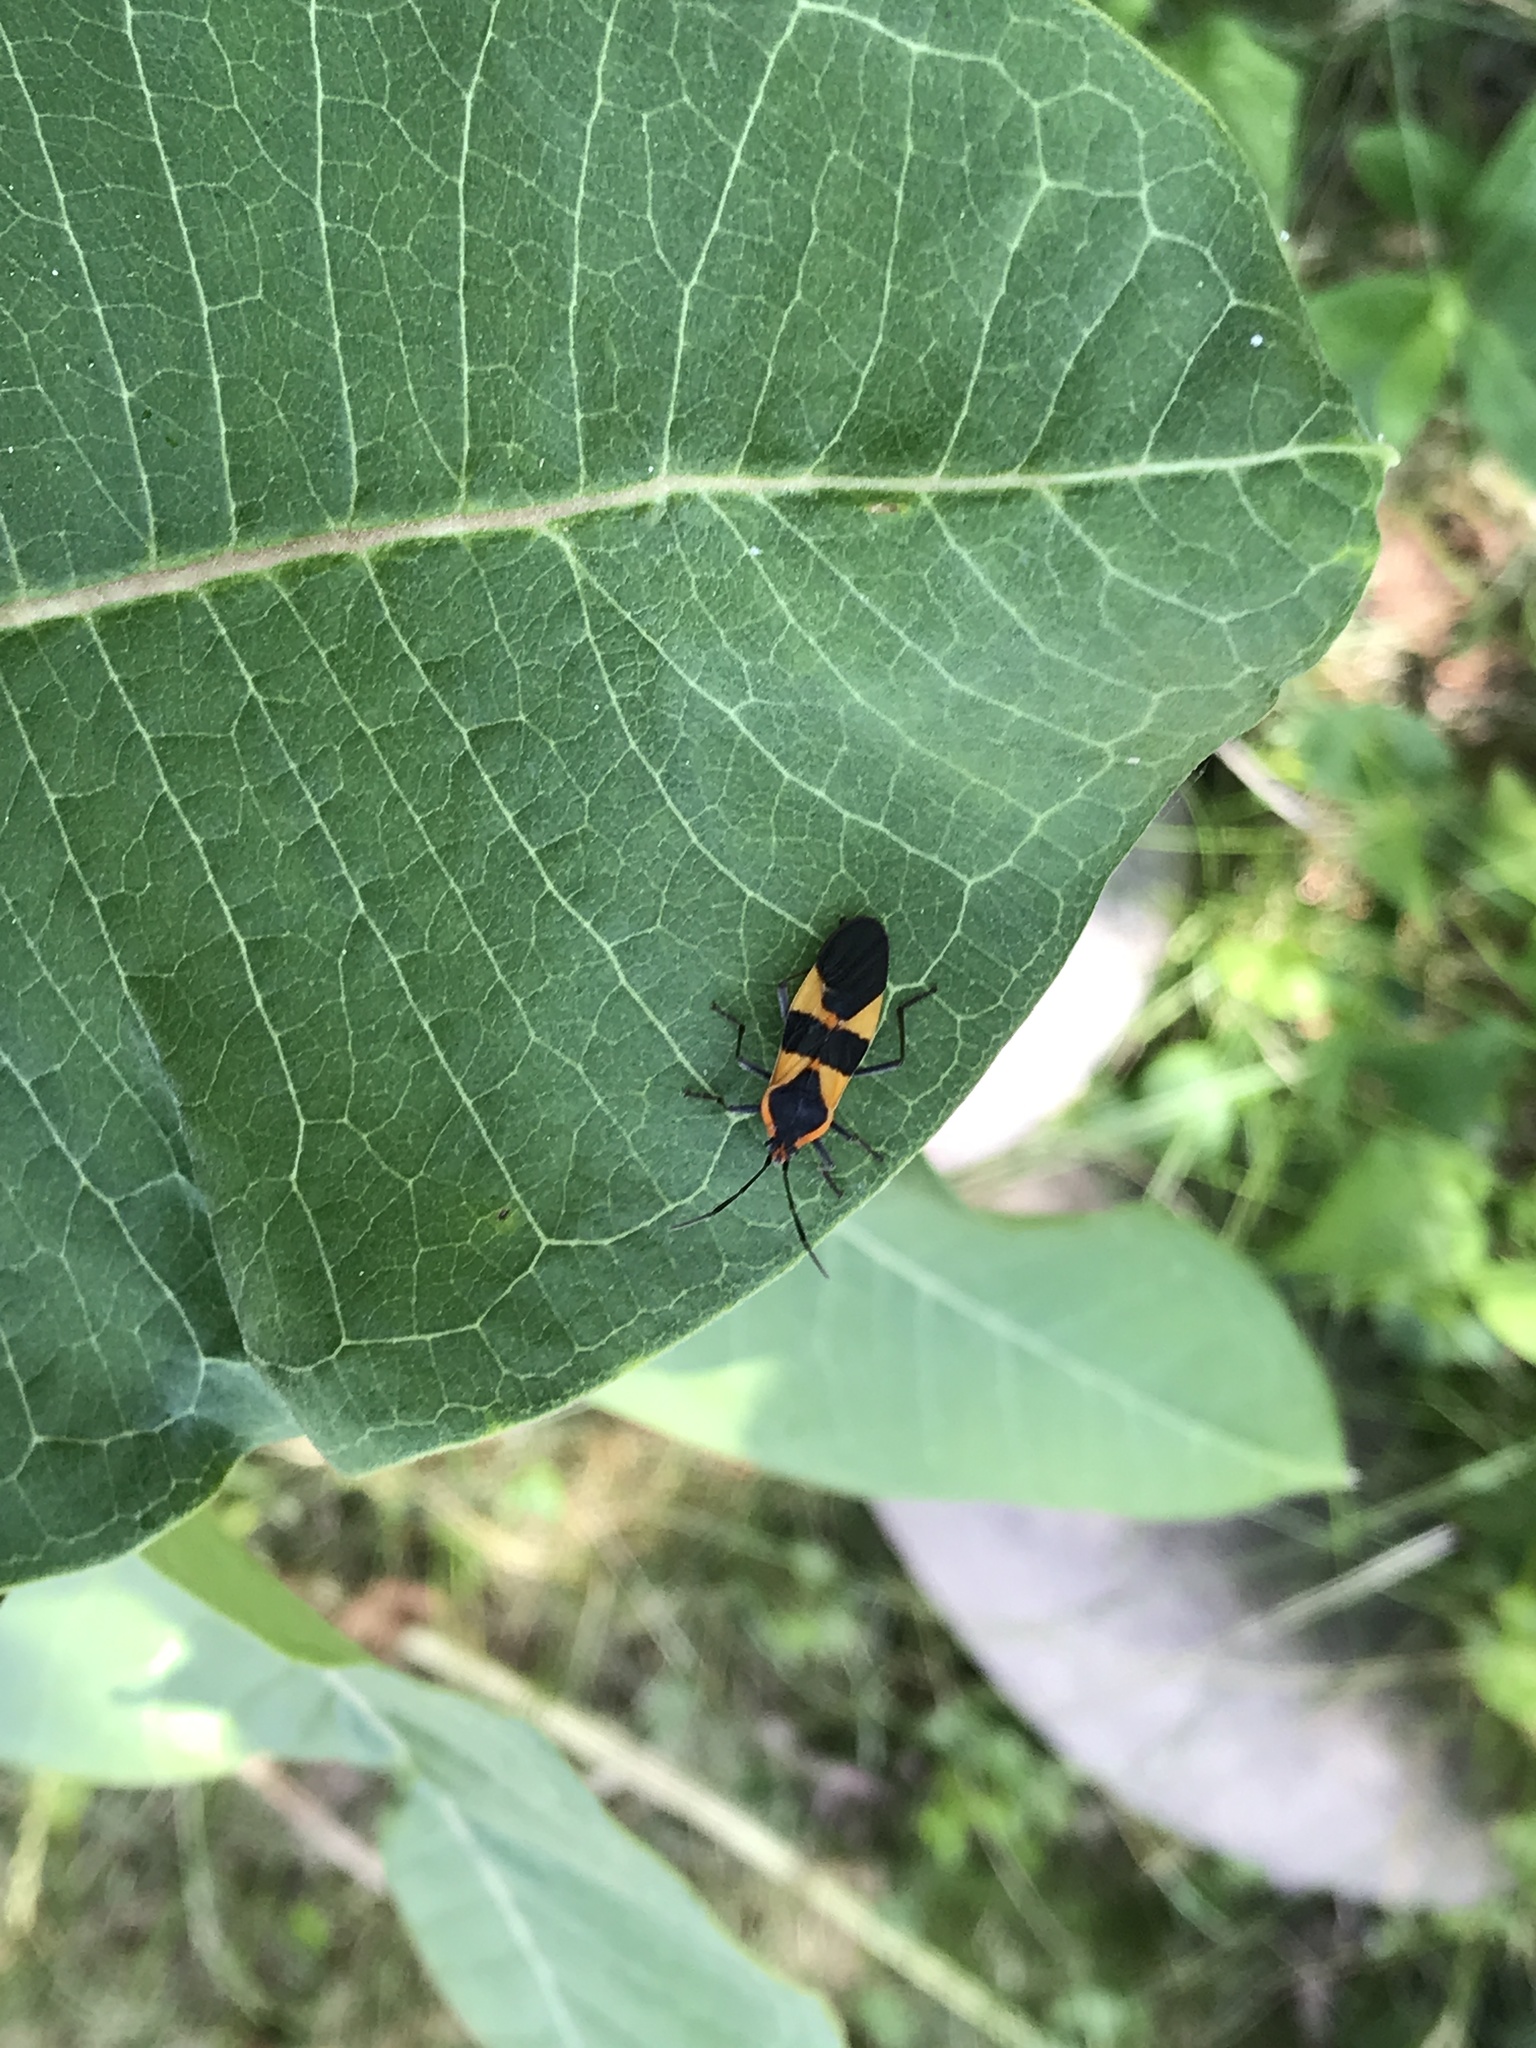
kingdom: Animalia
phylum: Arthropoda
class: Insecta
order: Hemiptera
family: Lygaeidae
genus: Oncopeltus
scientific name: Oncopeltus fasciatus
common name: Large milkweed bug
